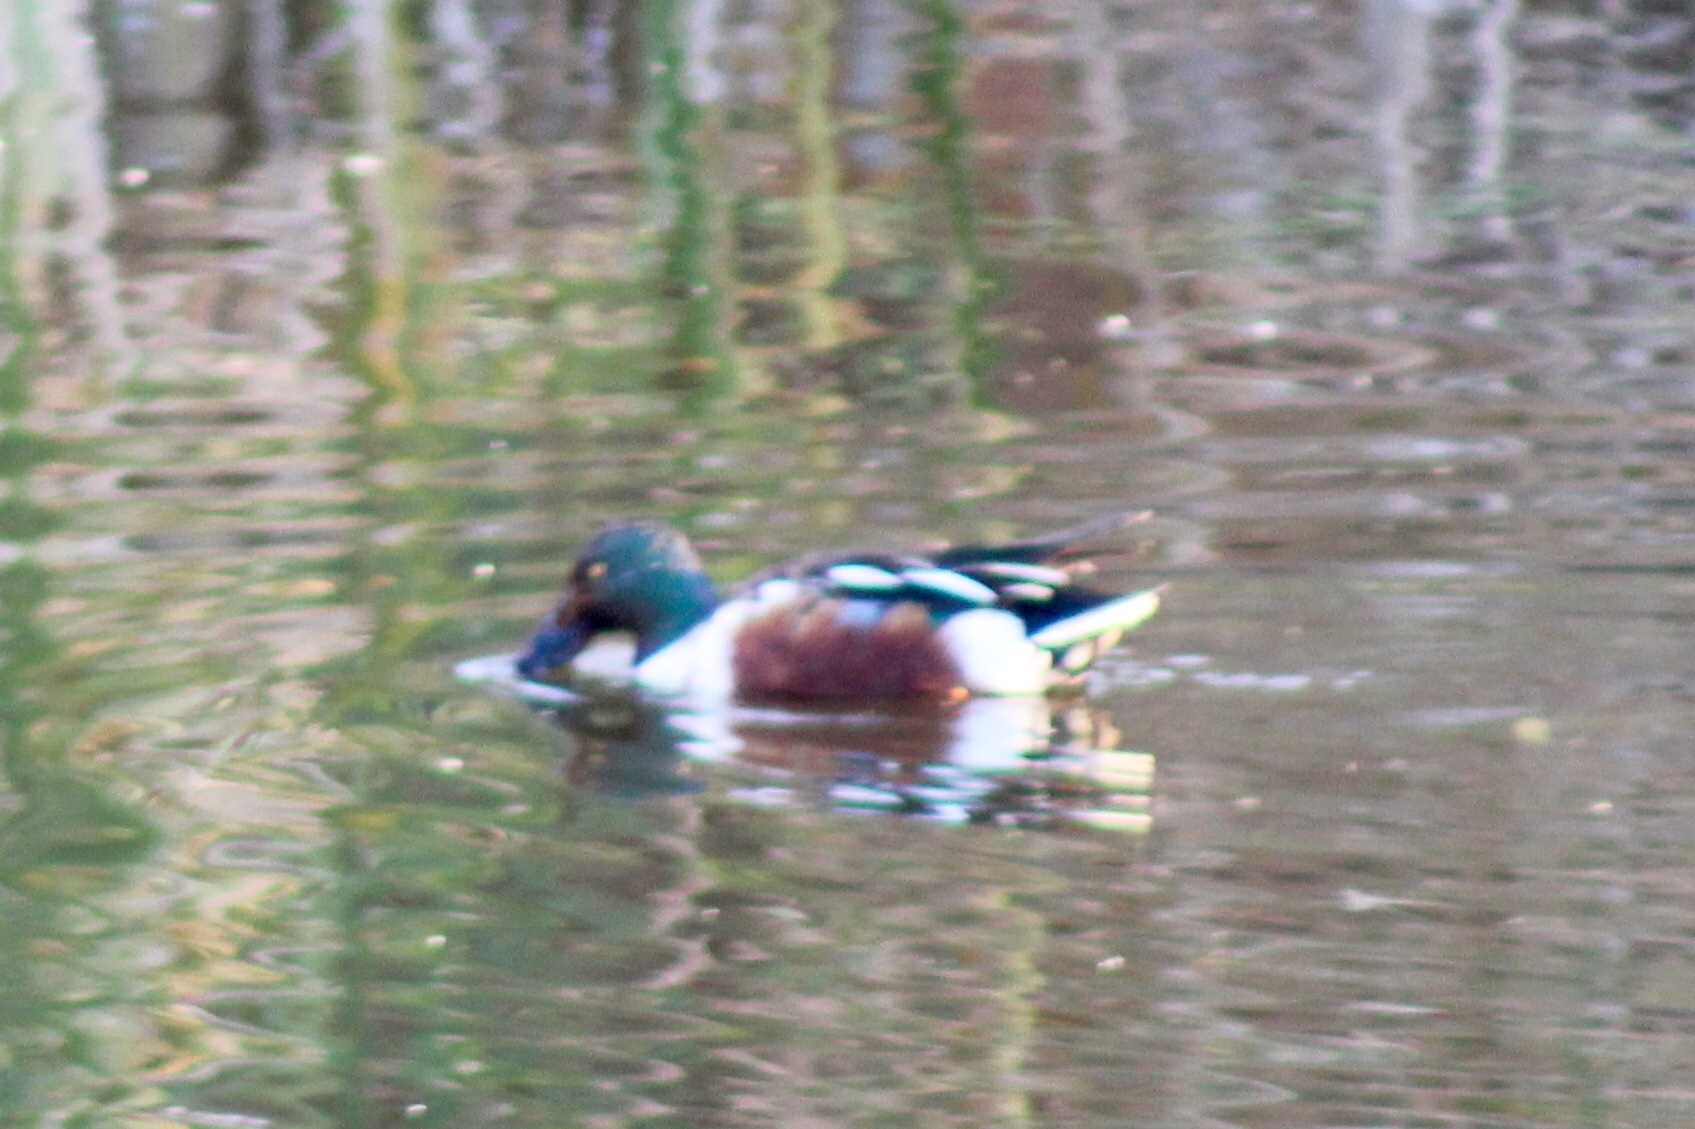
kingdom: Animalia
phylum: Chordata
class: Aves
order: Anseriformes
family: Anatidae
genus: Spatula
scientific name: Spatula clypeata
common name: Northern shoveler
